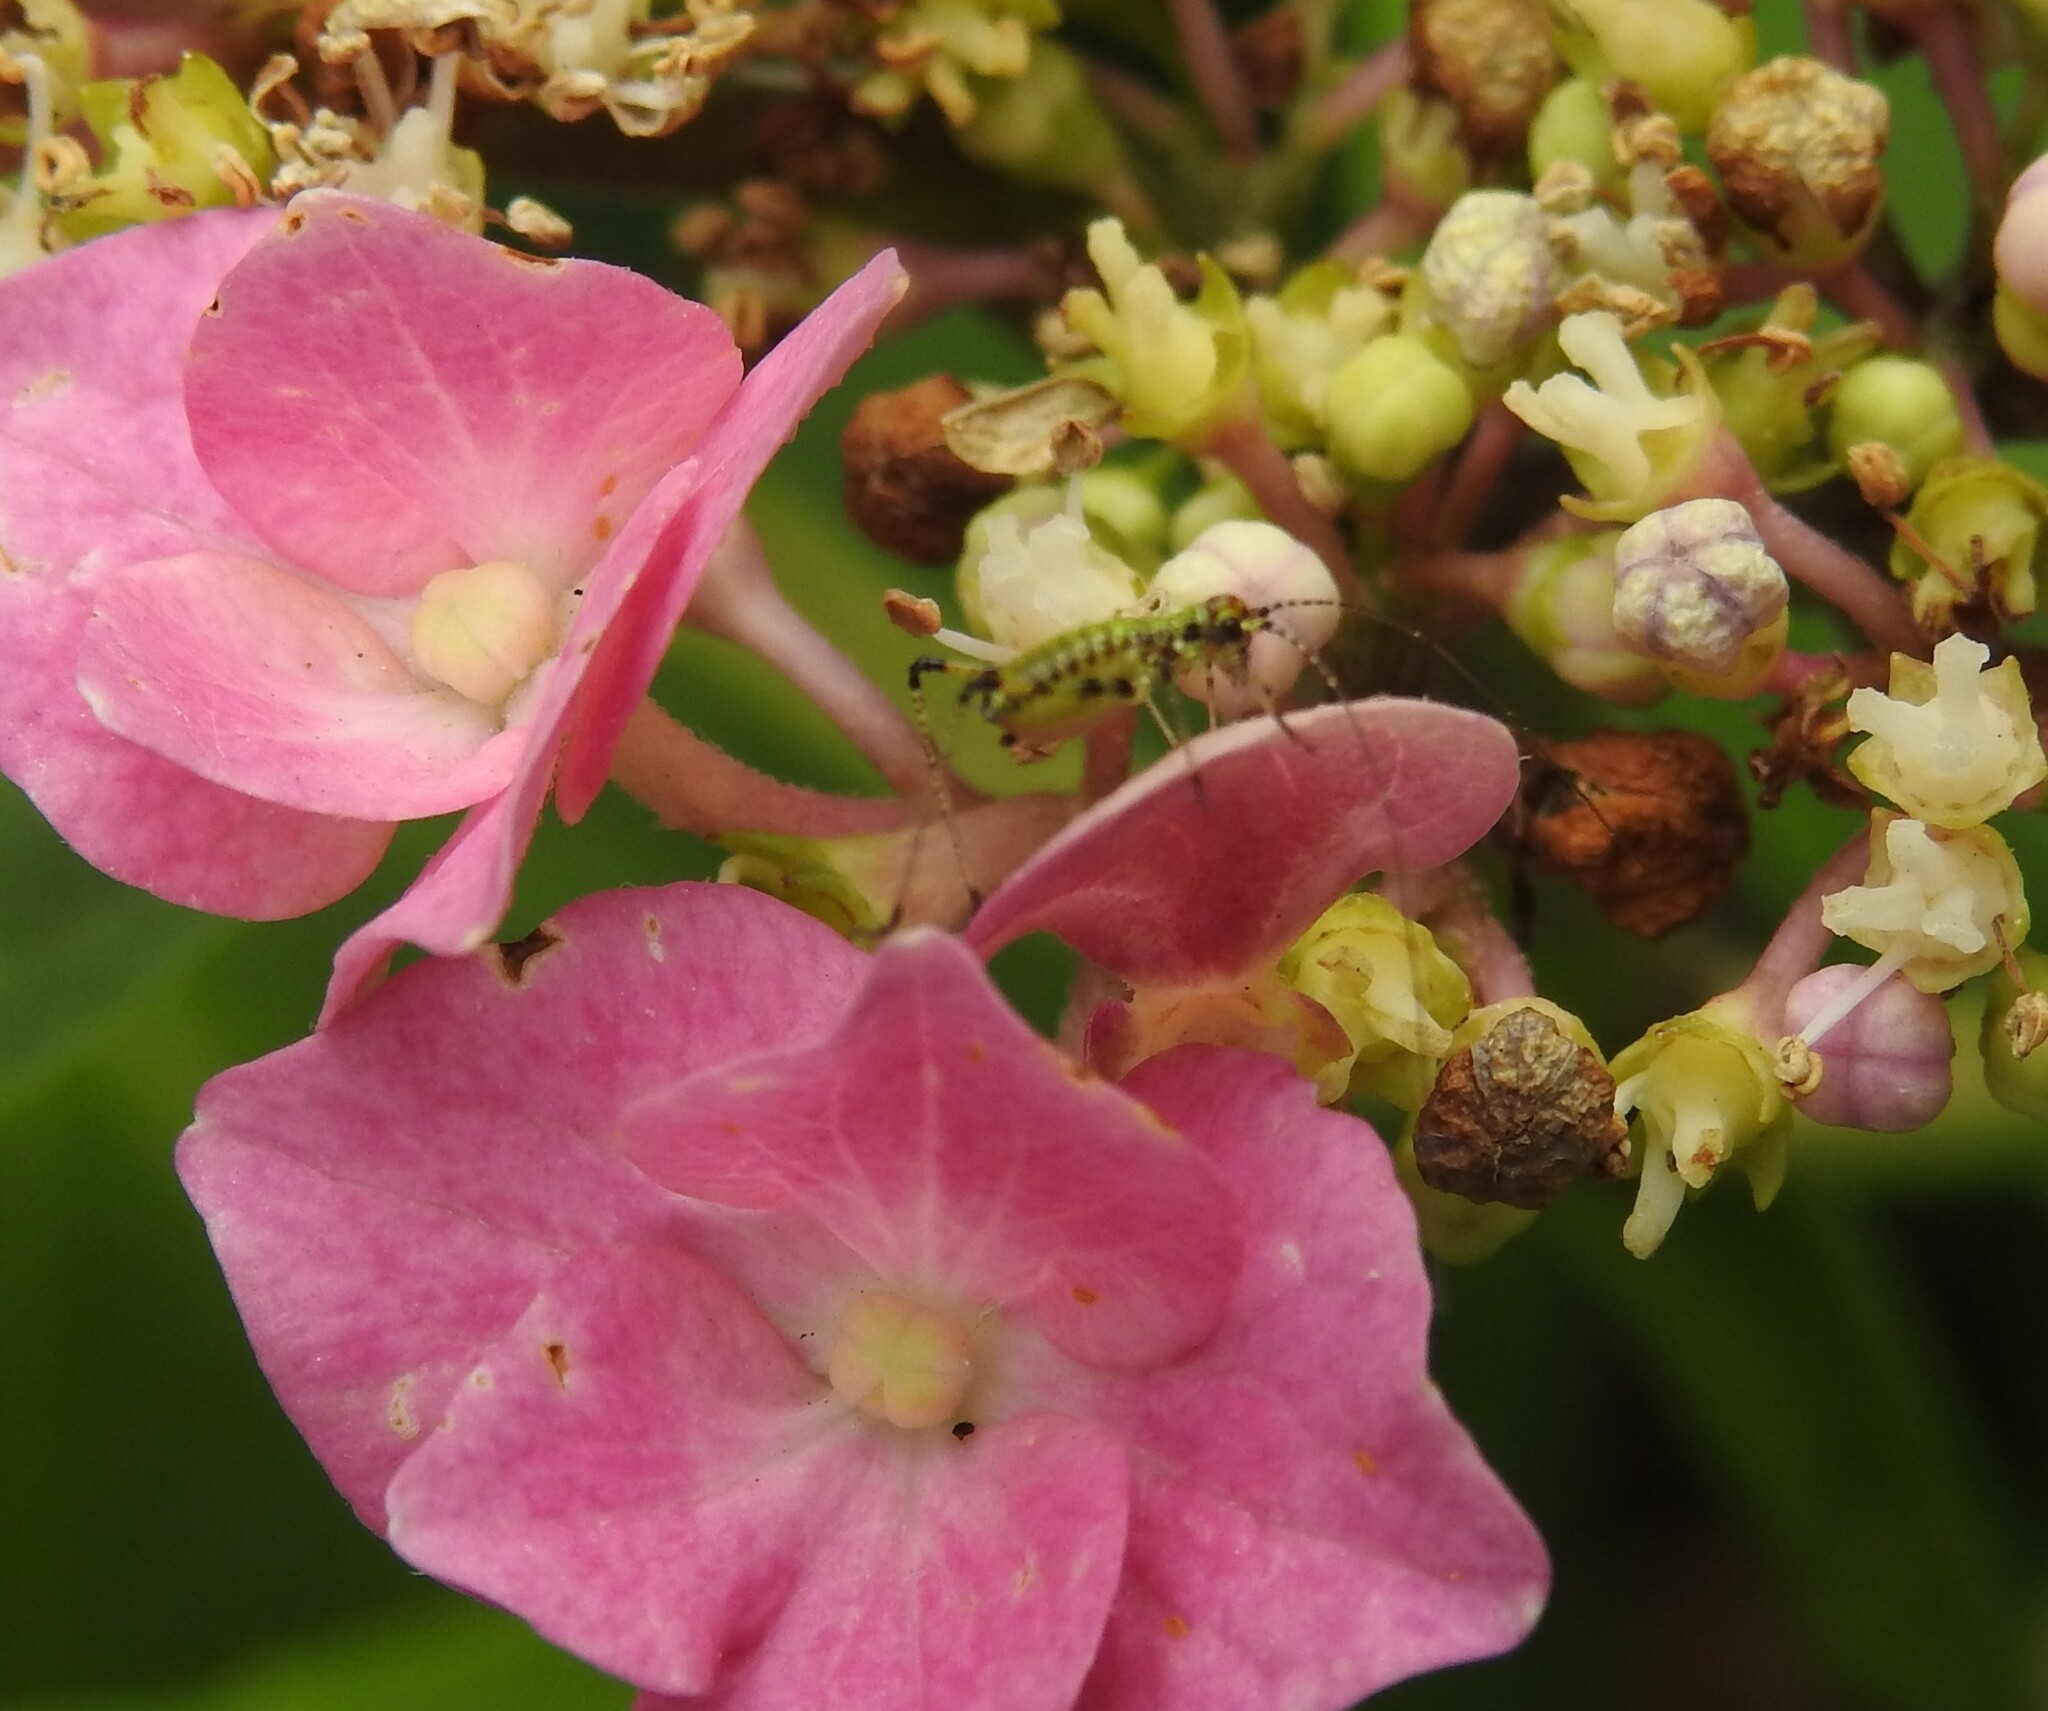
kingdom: Animalia
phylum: Arthropoda
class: Insecta
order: Orthoptera
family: Tettigoniidae
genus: Phaneroptera
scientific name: Phaneroptera nana
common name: Southern sickle bush-cricket
